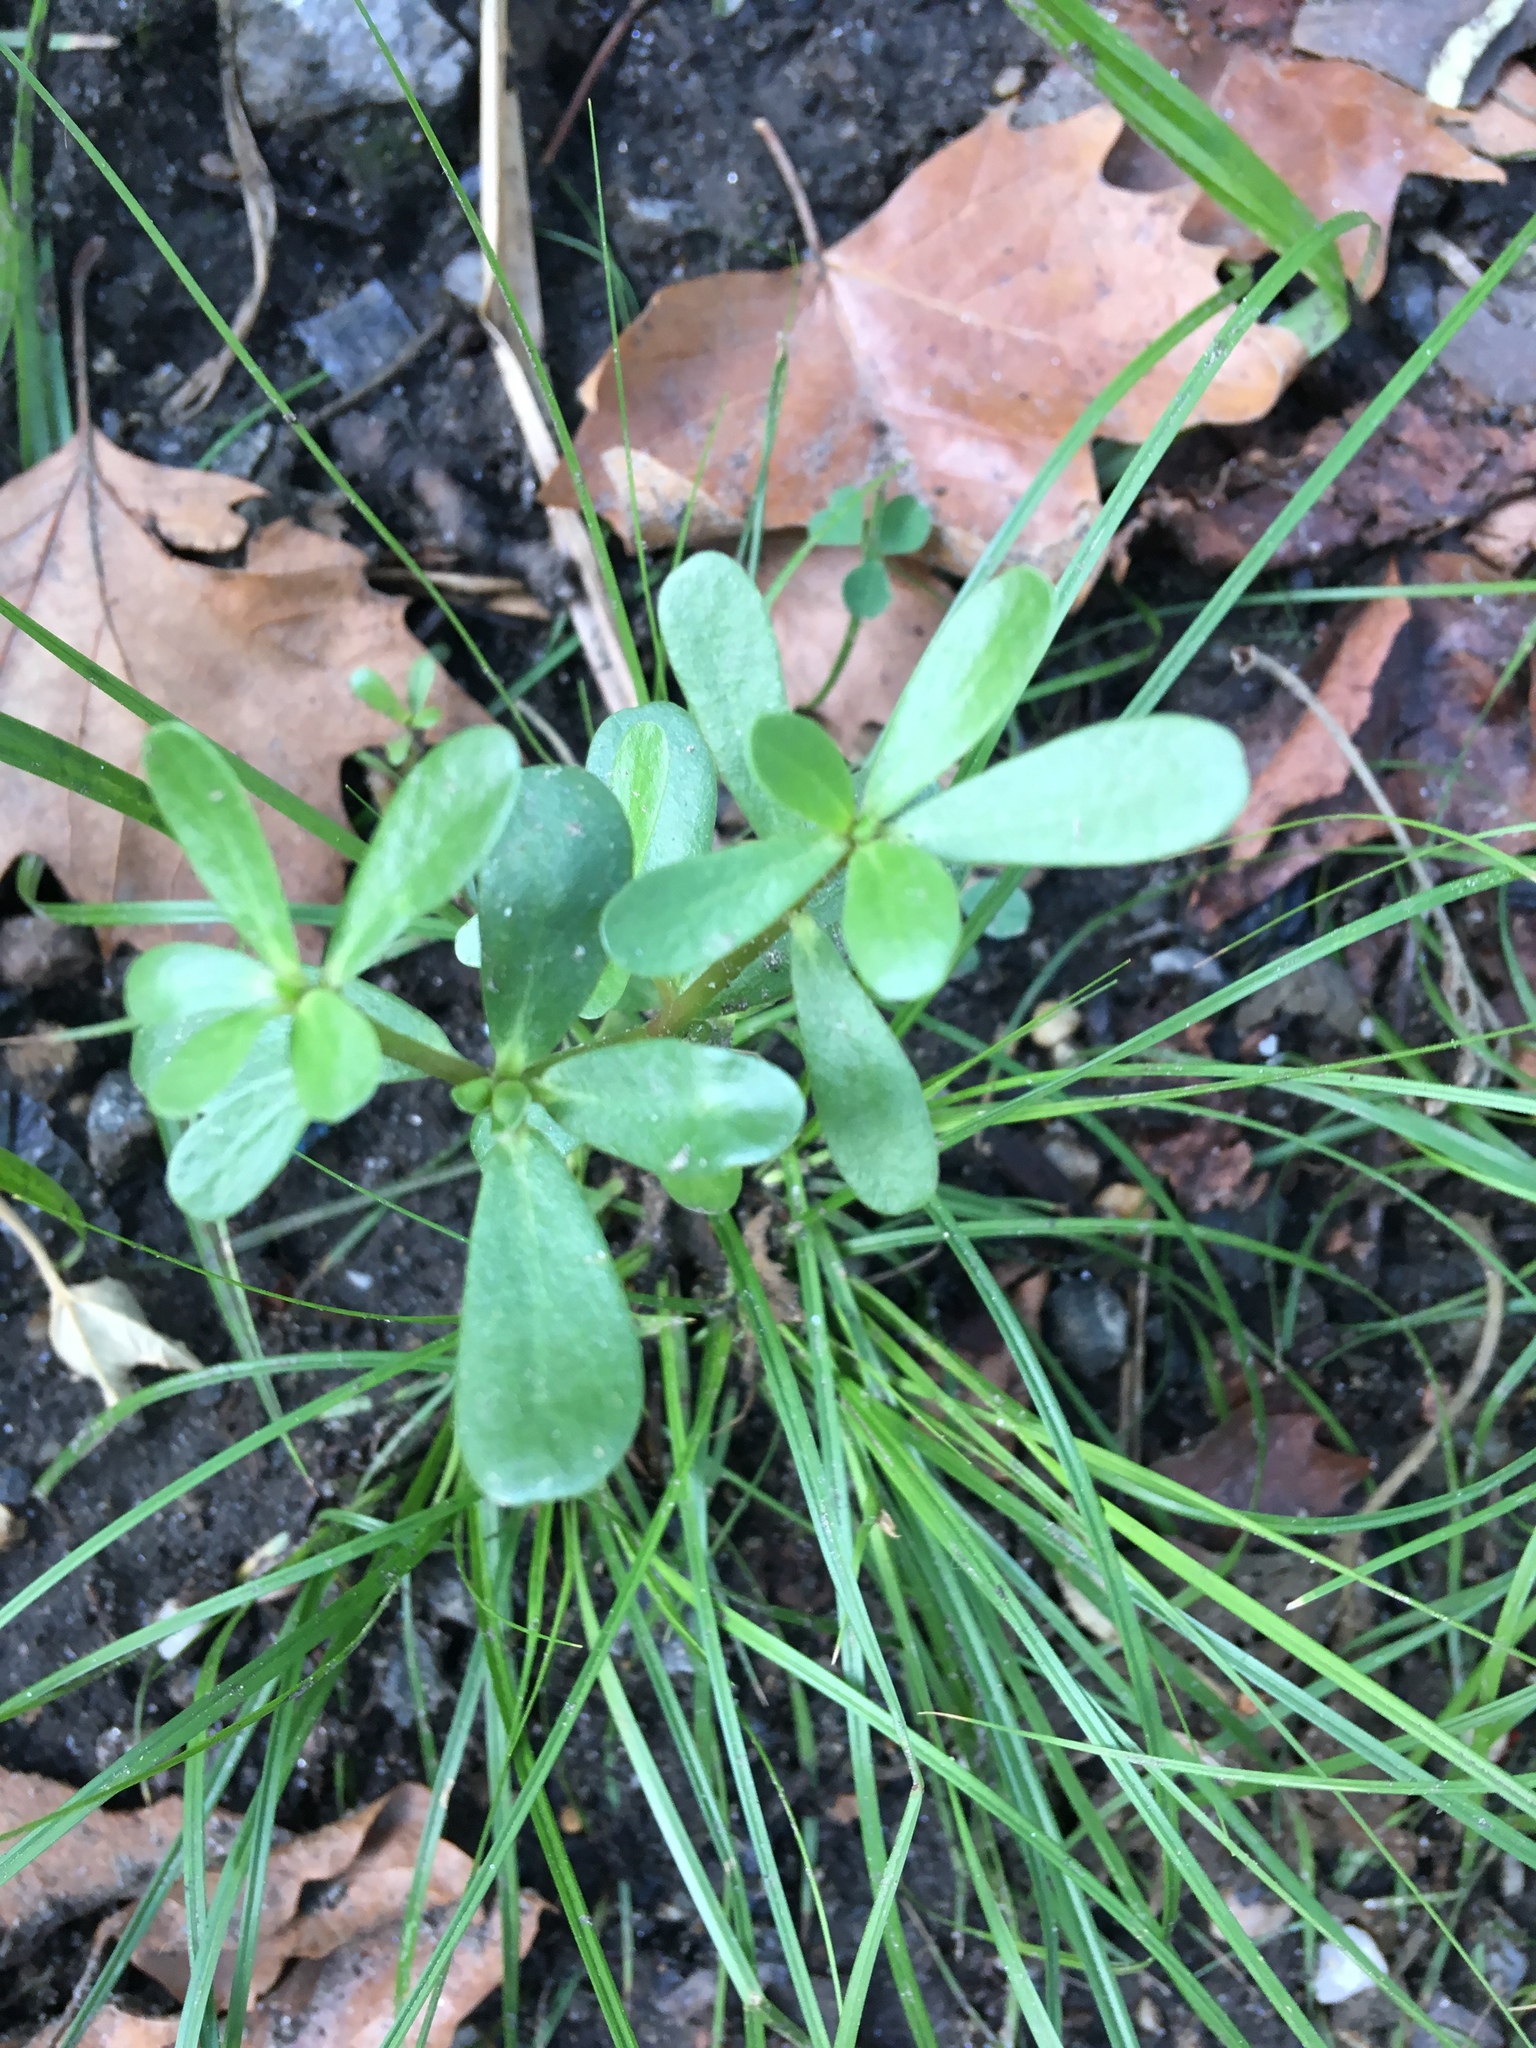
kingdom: Plantae
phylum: Tracheophyta
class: Magnoliopsida
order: Caryophyllales
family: Portulacaceae
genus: Portulaca
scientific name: Portulaca oleracea
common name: Common purslane
